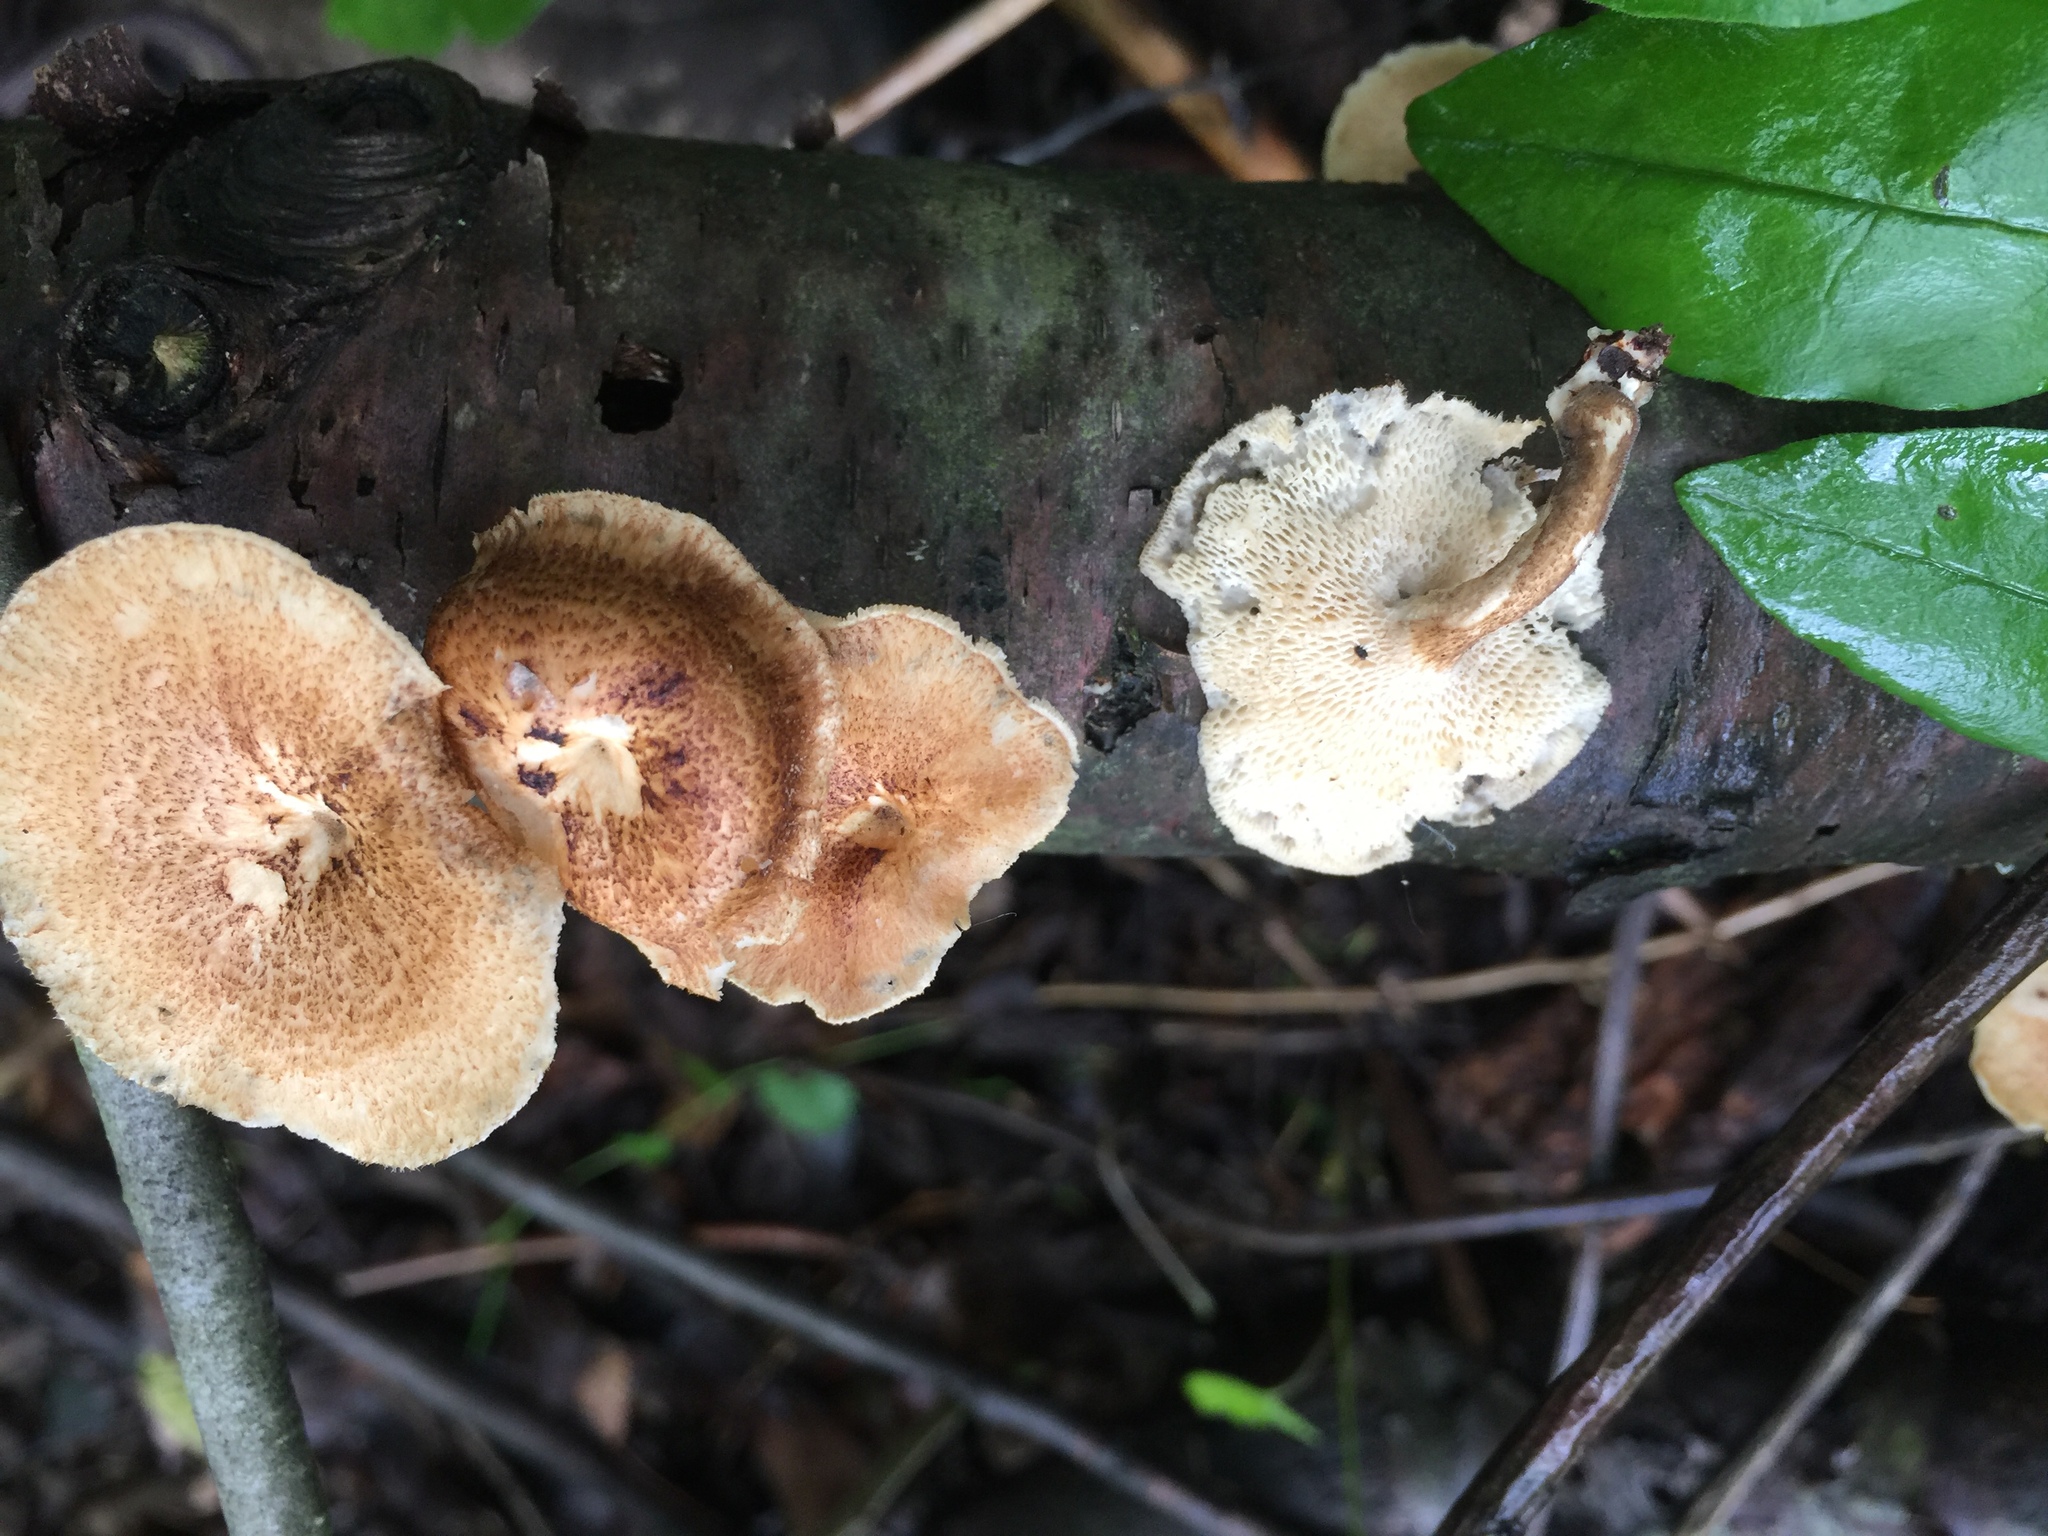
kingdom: Fungi
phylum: Basidiomycota
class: Agaricomycetes
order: Polyporales
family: Polyporaceae
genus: Lentinus
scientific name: Lentinus arcularius
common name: Spring polypore
